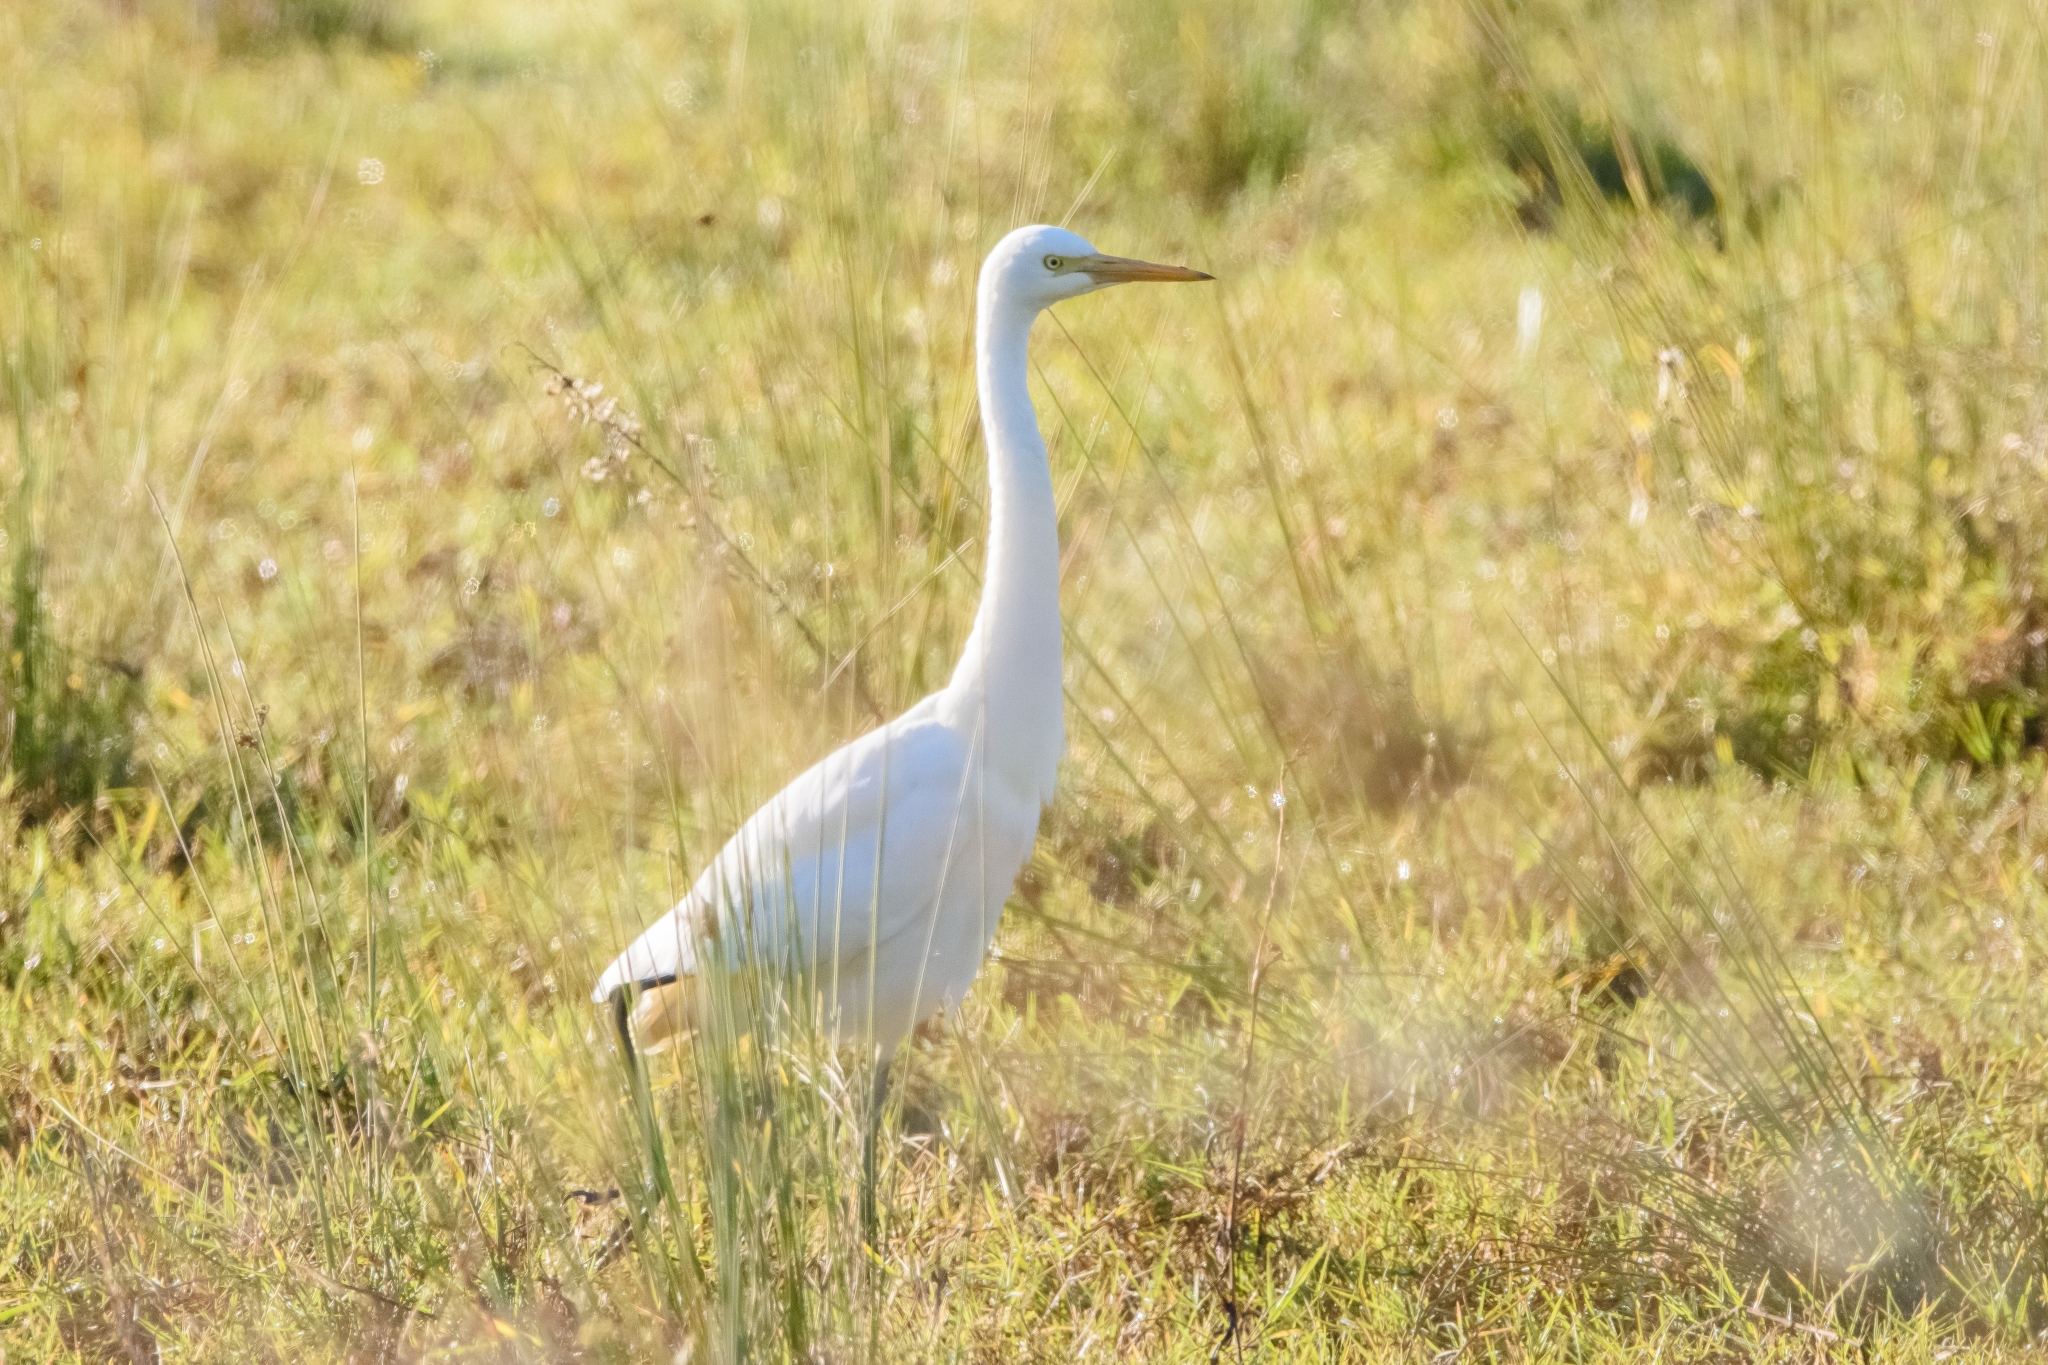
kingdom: Animalia
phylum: Chordata
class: Aves
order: Pelecaniformes
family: Ardeidae
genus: Egretta
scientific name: Egretta intermedia
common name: Intermediate egret
